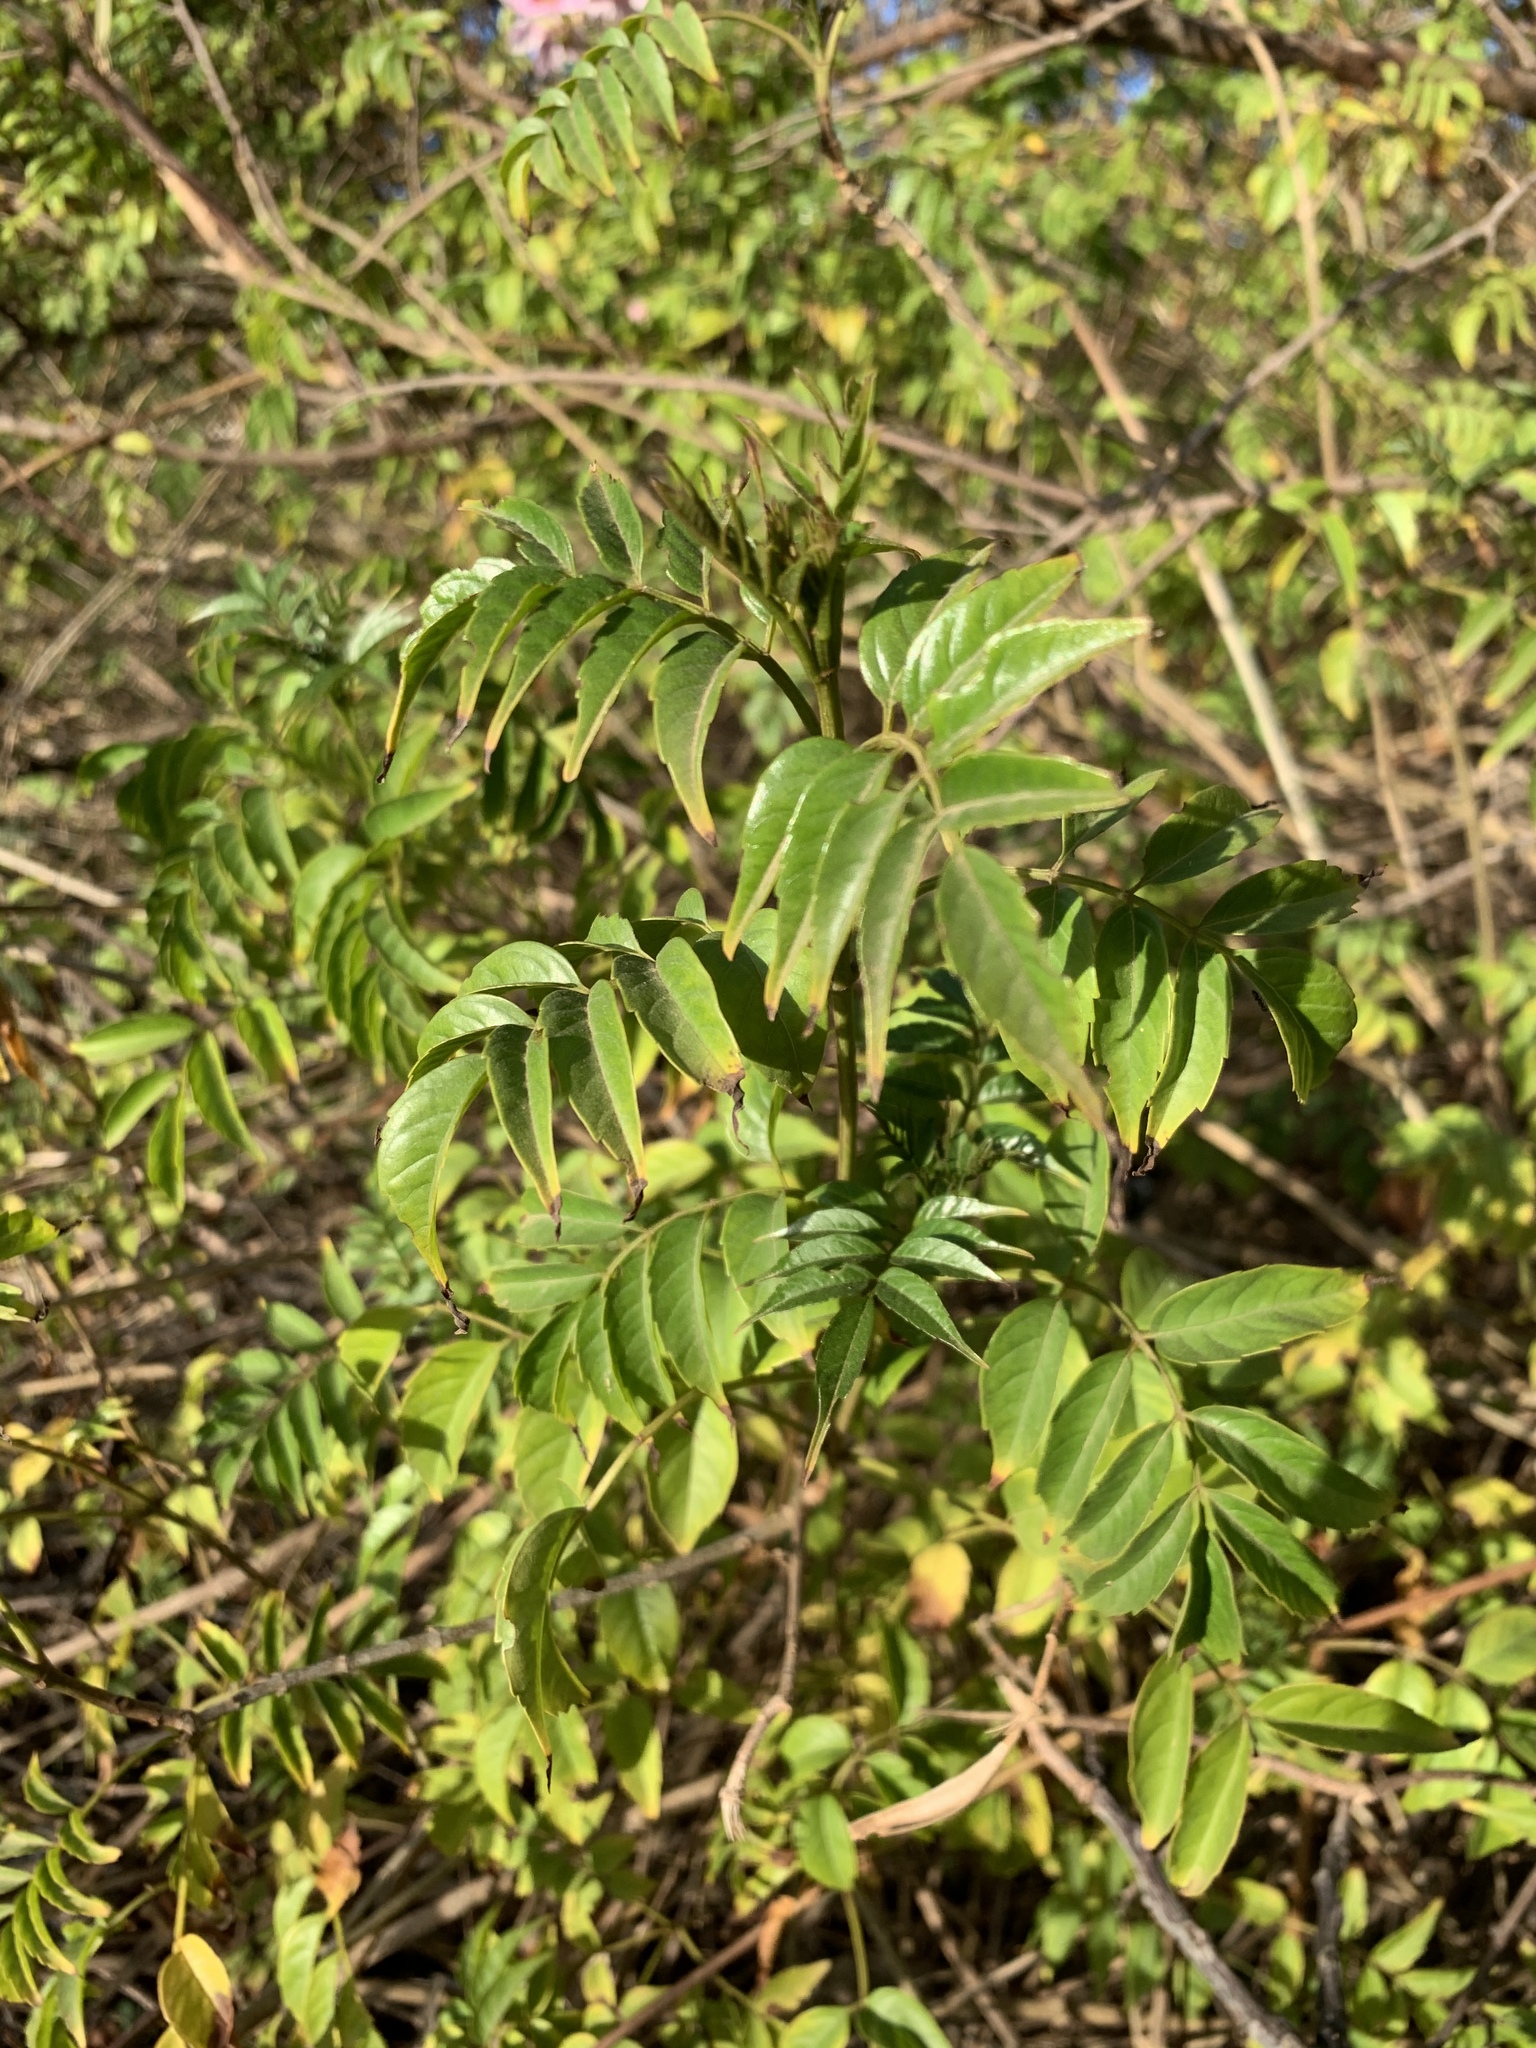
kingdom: Plantae
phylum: Tracheophyta
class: Magnoliopsida
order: Lamiales
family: Bignoniaceae
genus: Podranea
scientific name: Podranea ricasoliana
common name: Zimbabwe creeper
